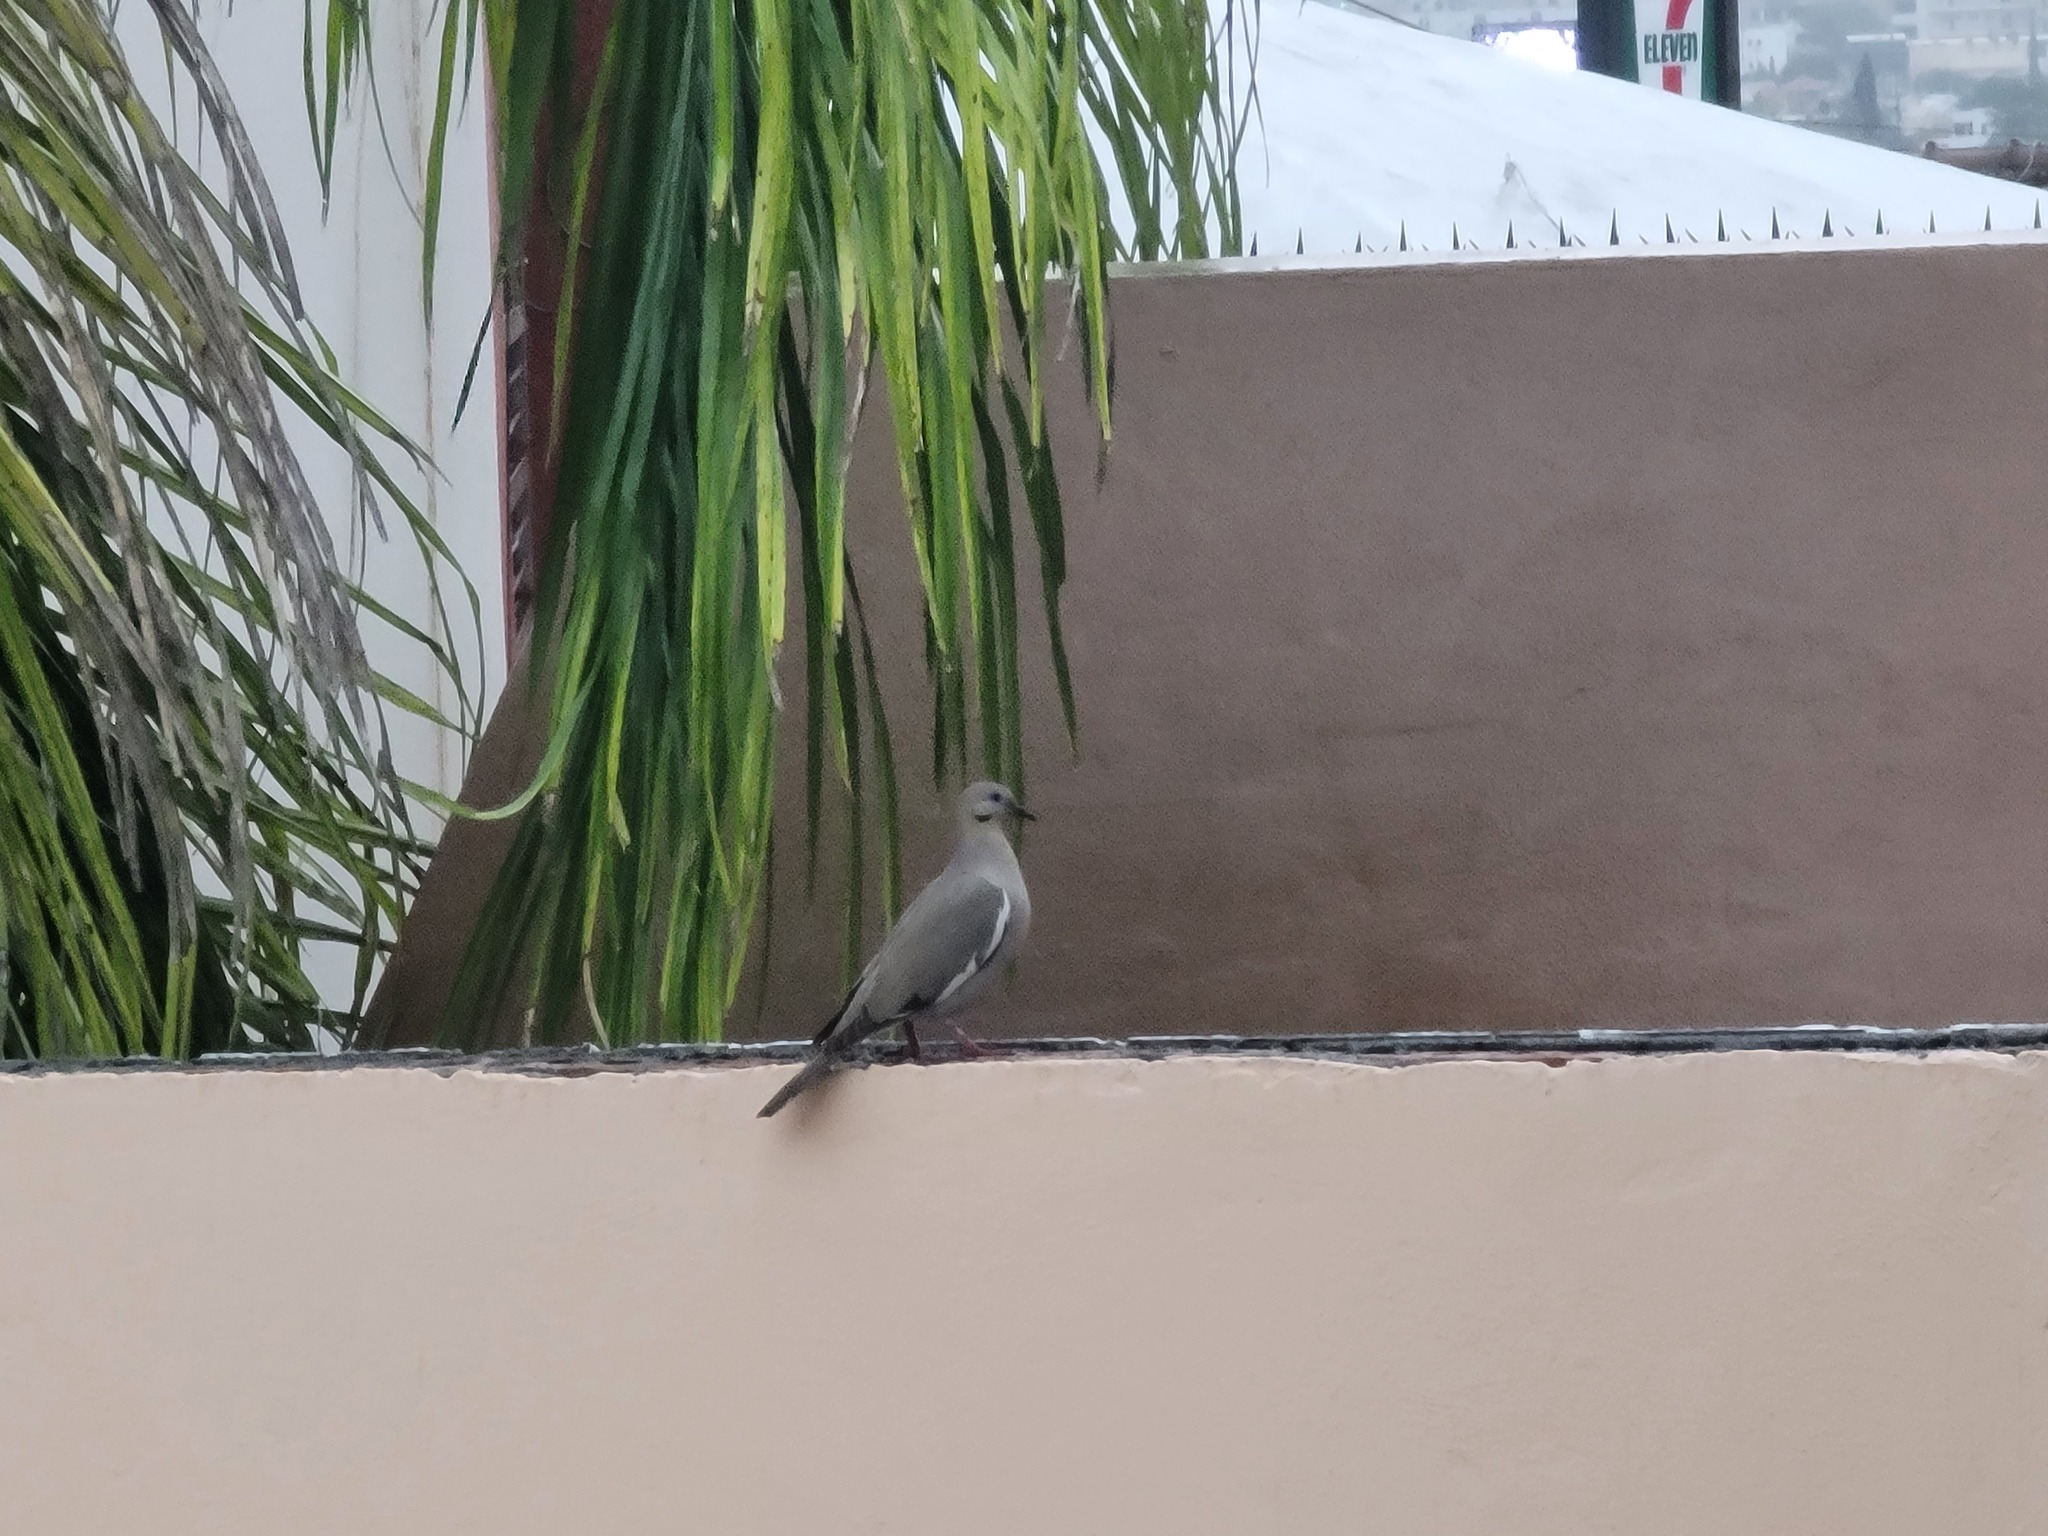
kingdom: Animalia
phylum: Chordata
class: Aves
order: Columbiformes
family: Columbidae
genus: Zenaida
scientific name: Zenaida asiatica
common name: White-winged dove
